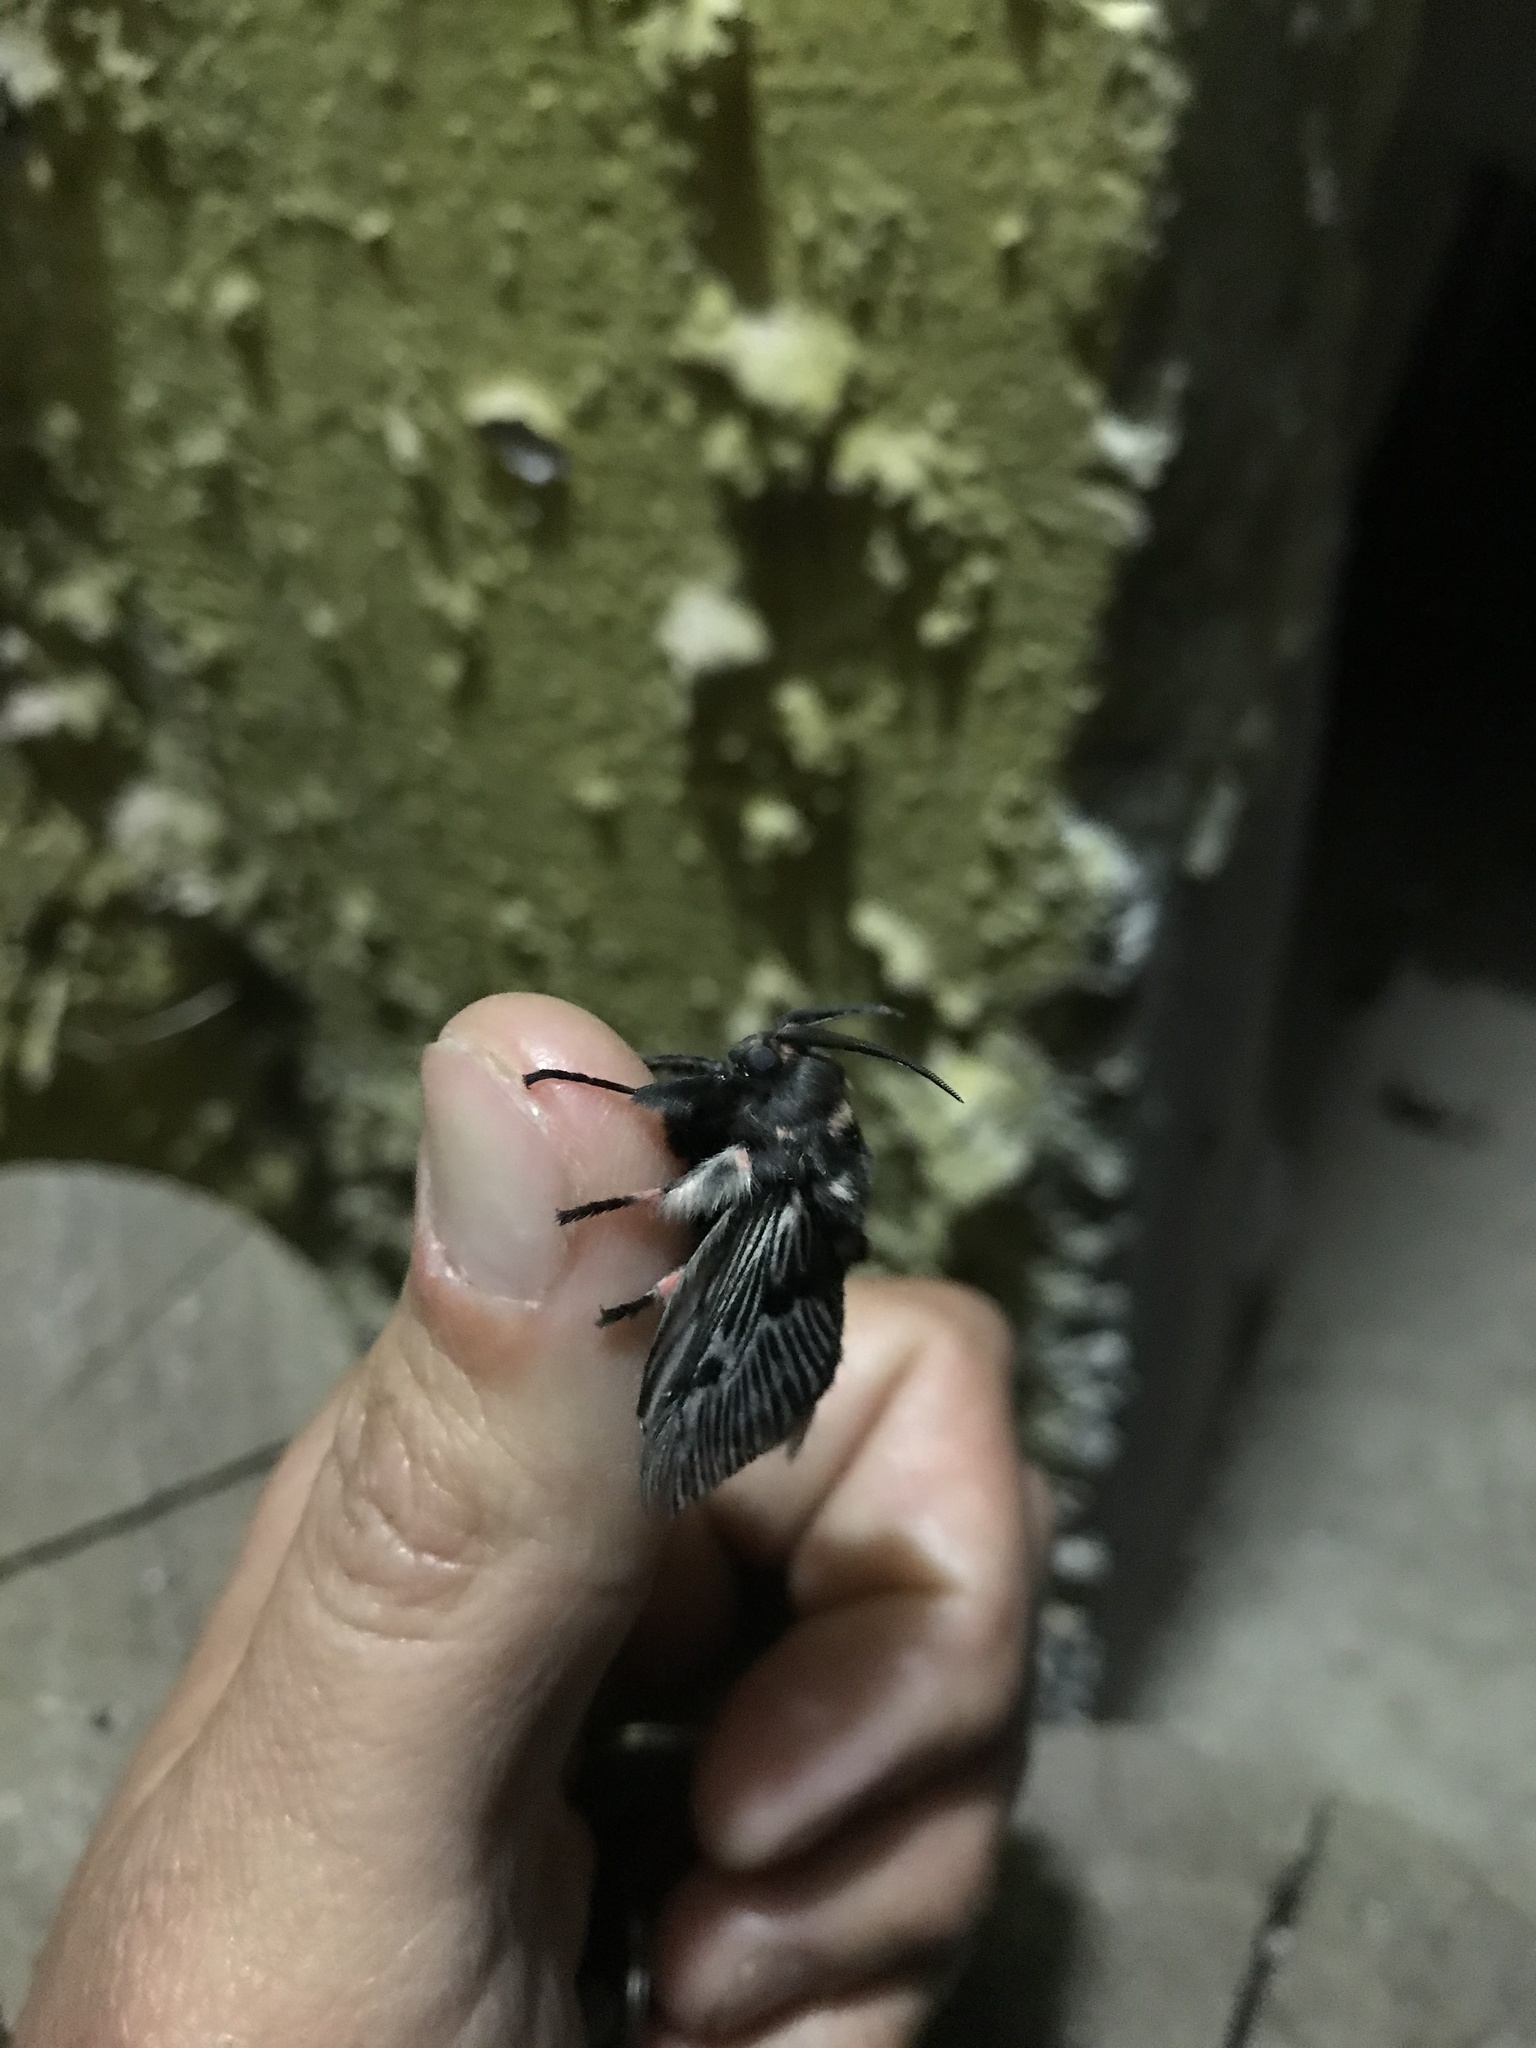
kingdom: Animalia
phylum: Arthropoda
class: Insecta
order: Lepidoptera
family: Megalopygidae
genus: Megalopyge
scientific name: Megalopyge urens
